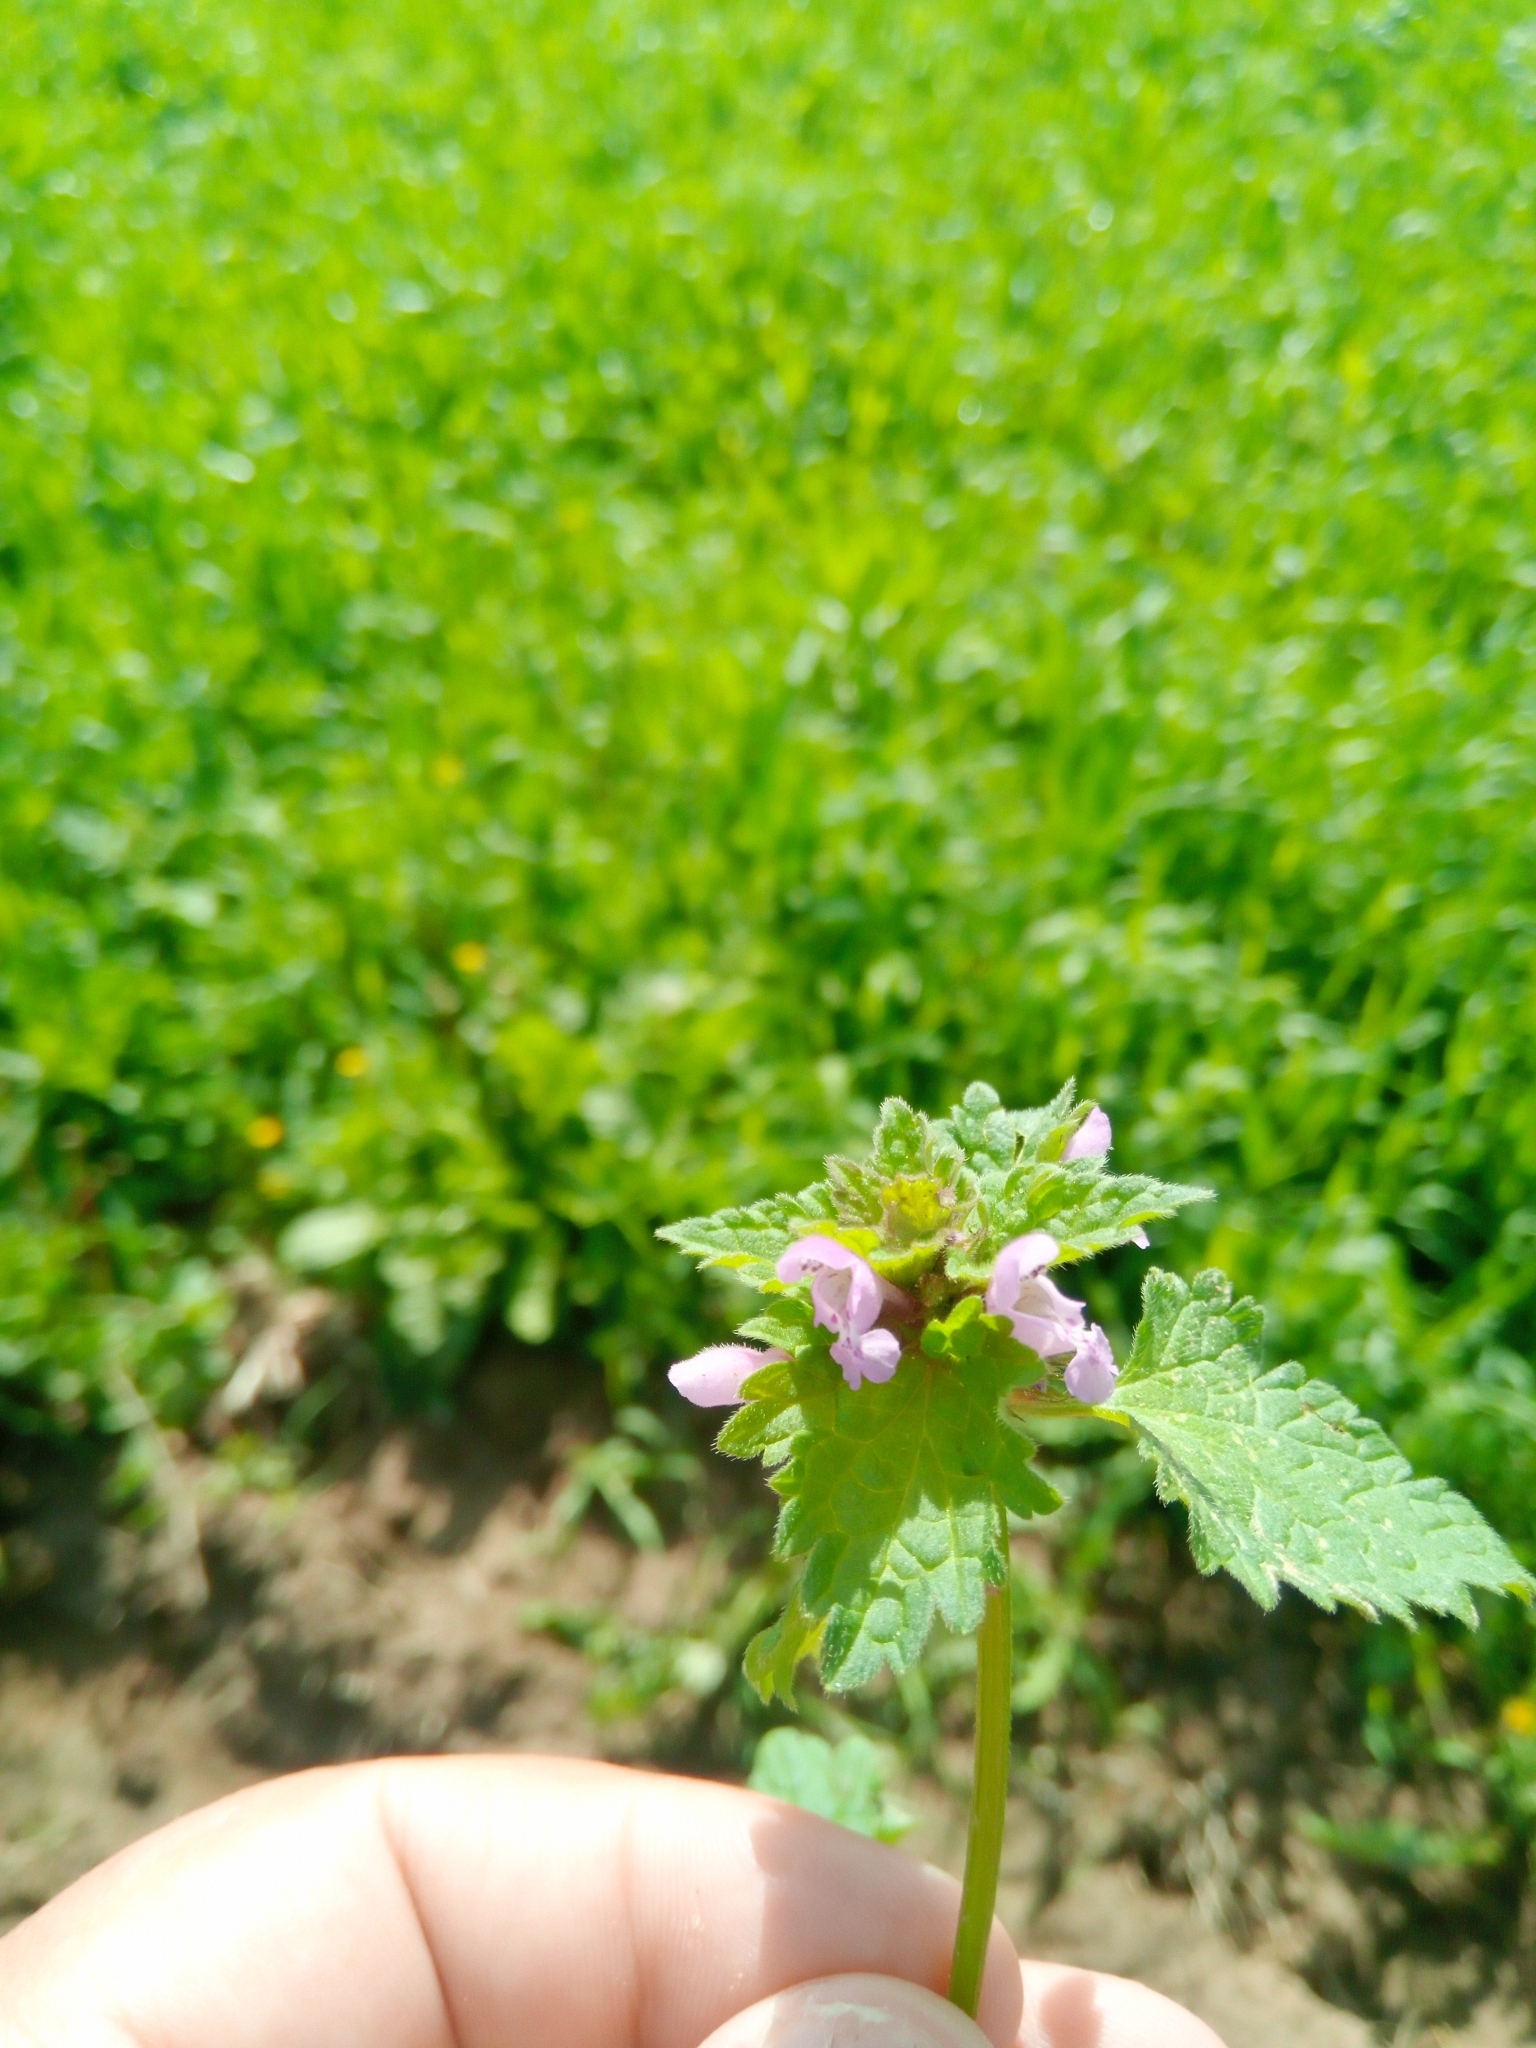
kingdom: Plantae
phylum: Tracheophyta
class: Magnoliopsida
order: Lamiales
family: Lamiaceae
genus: Lamium
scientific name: Lamium purpureum
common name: Red dead-nettle
